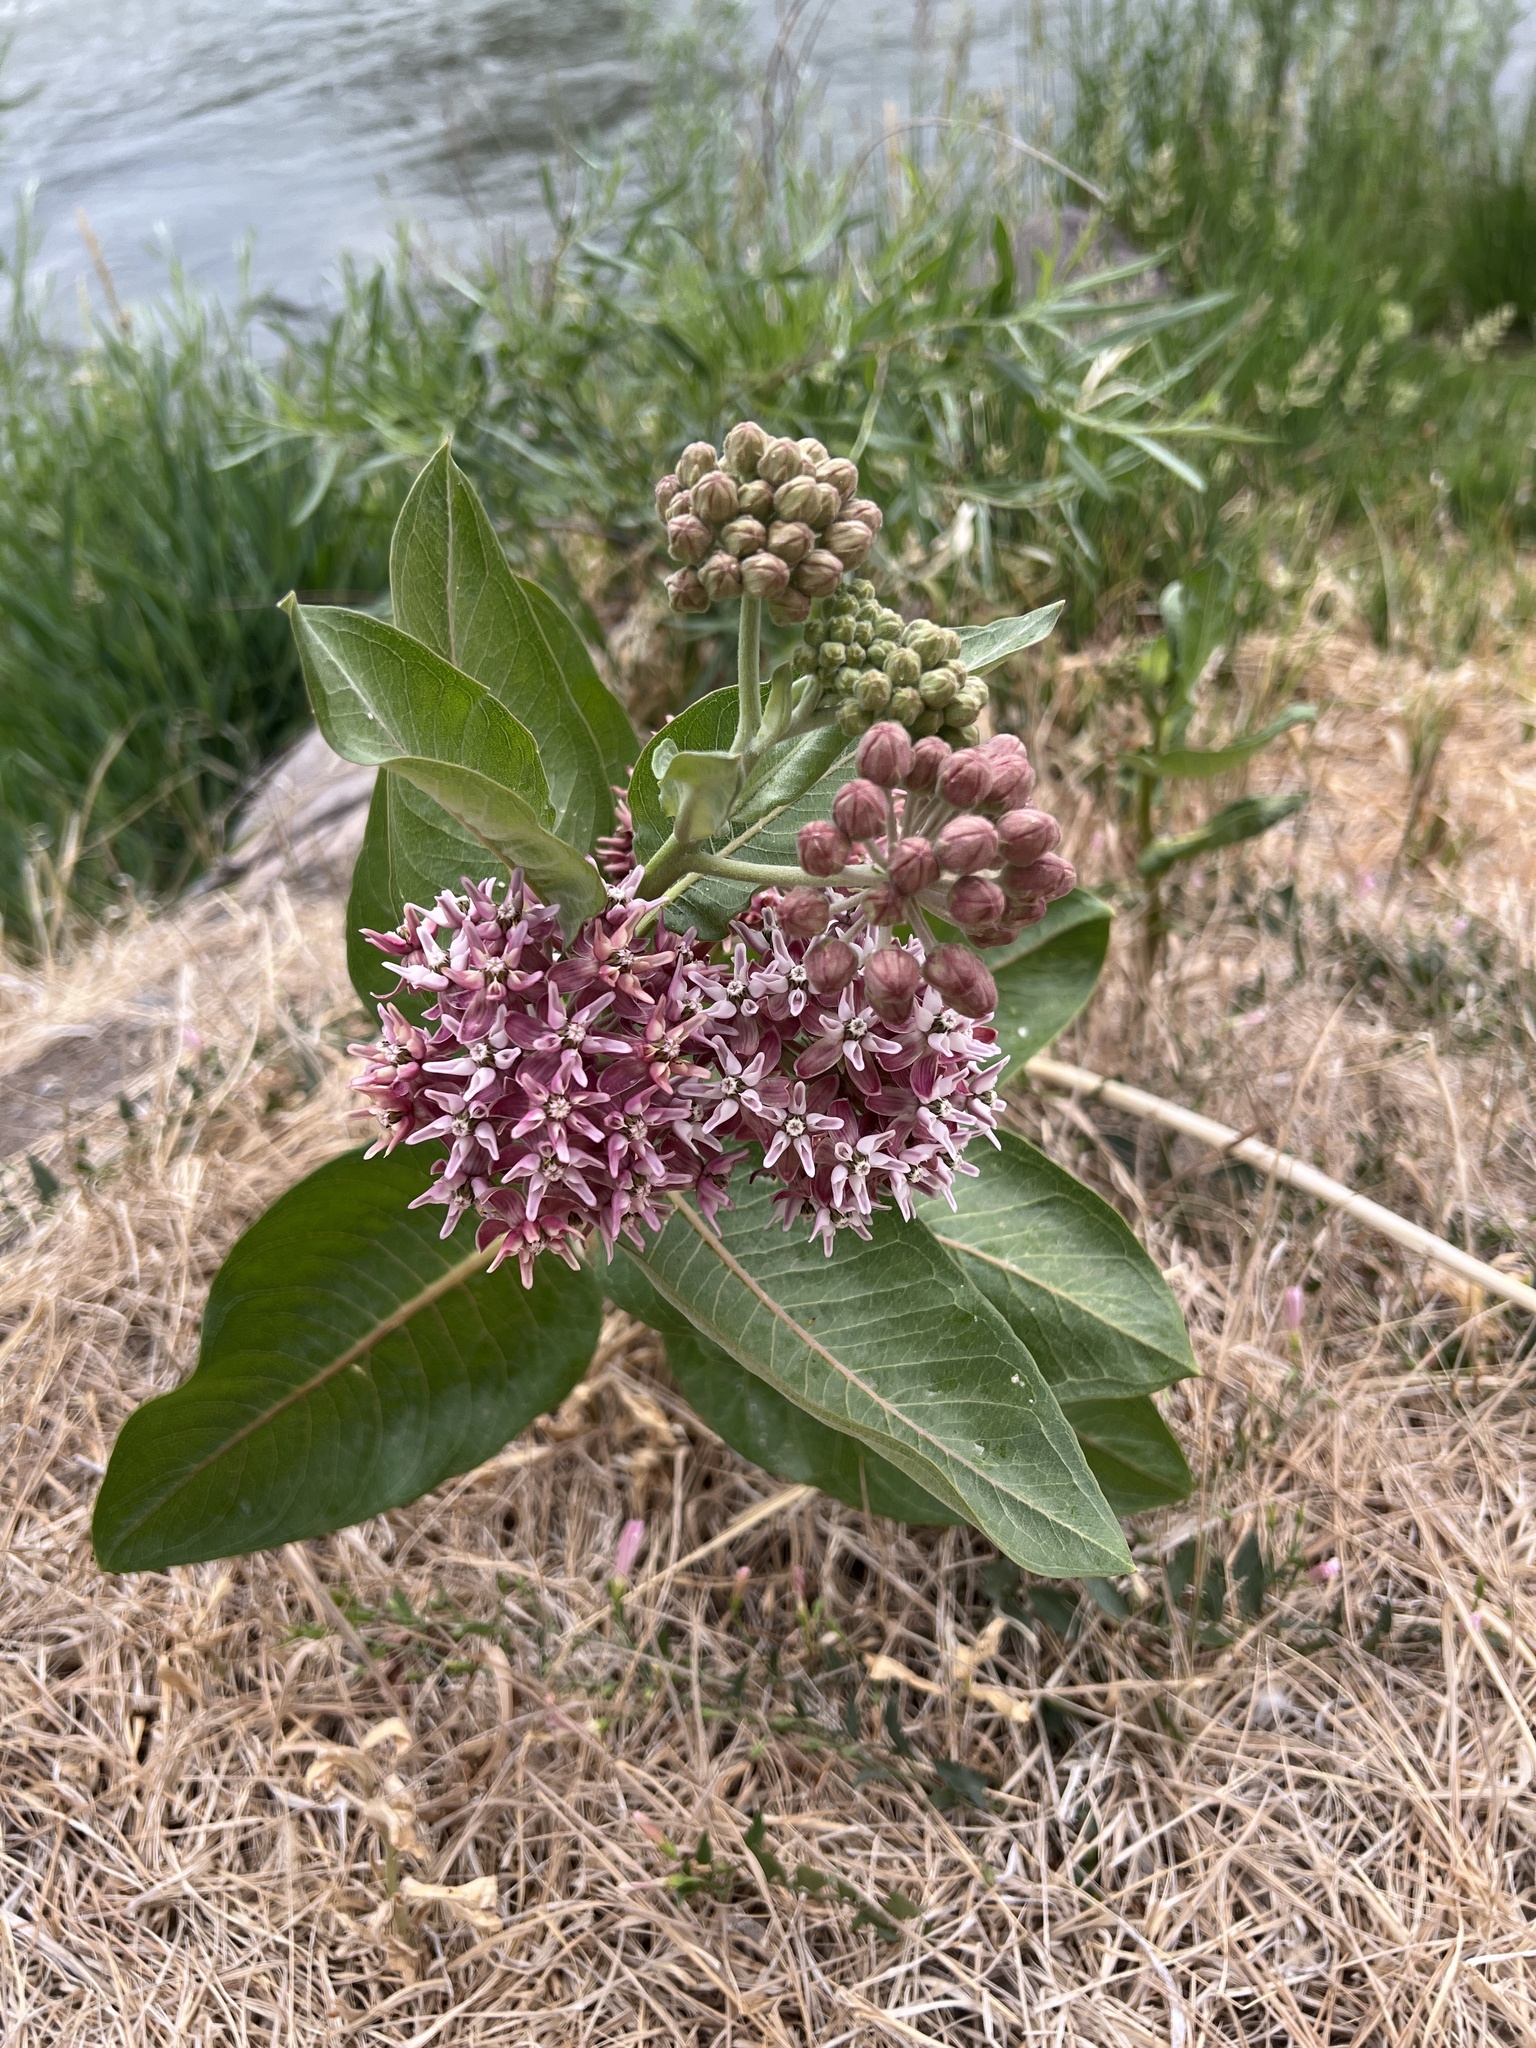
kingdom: Plantae
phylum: Tracheophyta
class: Magnoliopsida
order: Gentianales
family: Apocynaceae
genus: Asclepias
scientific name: Asclepias speciosa
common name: Showy milkweed
